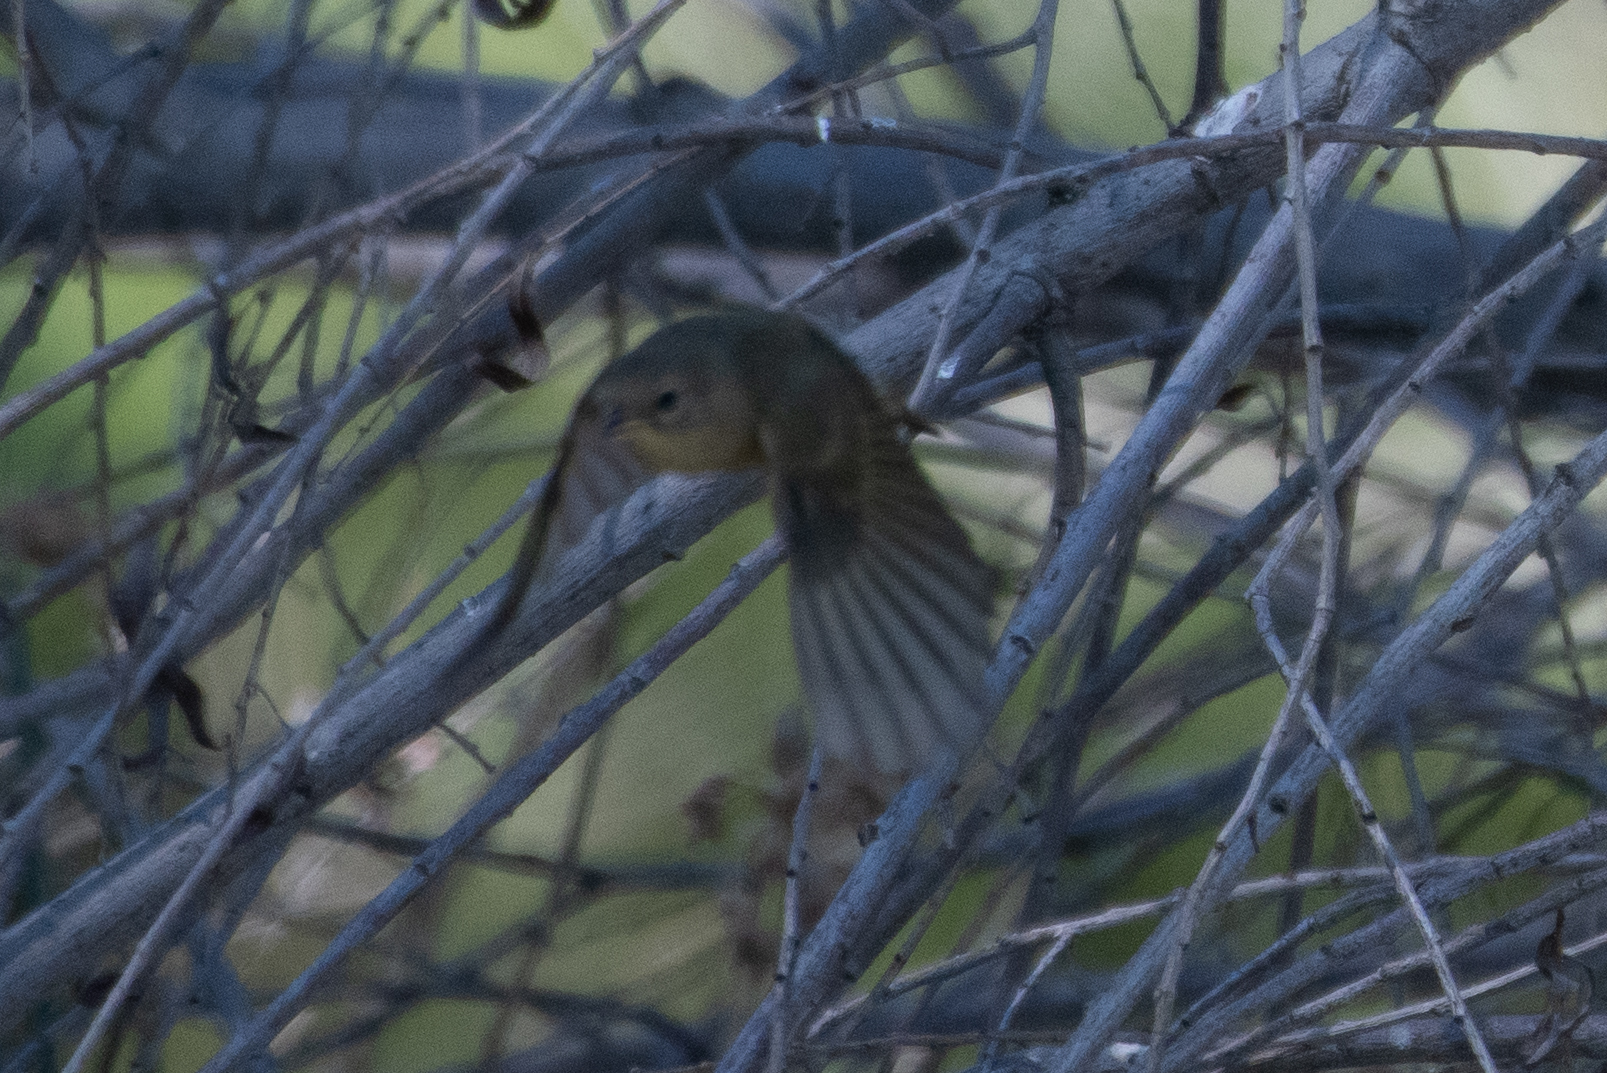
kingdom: Animalia
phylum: Chordata
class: Aves
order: Passeriformes
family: Parulidae
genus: Geothlypis
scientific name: Geothlypis trichas
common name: Common yellowthroat
